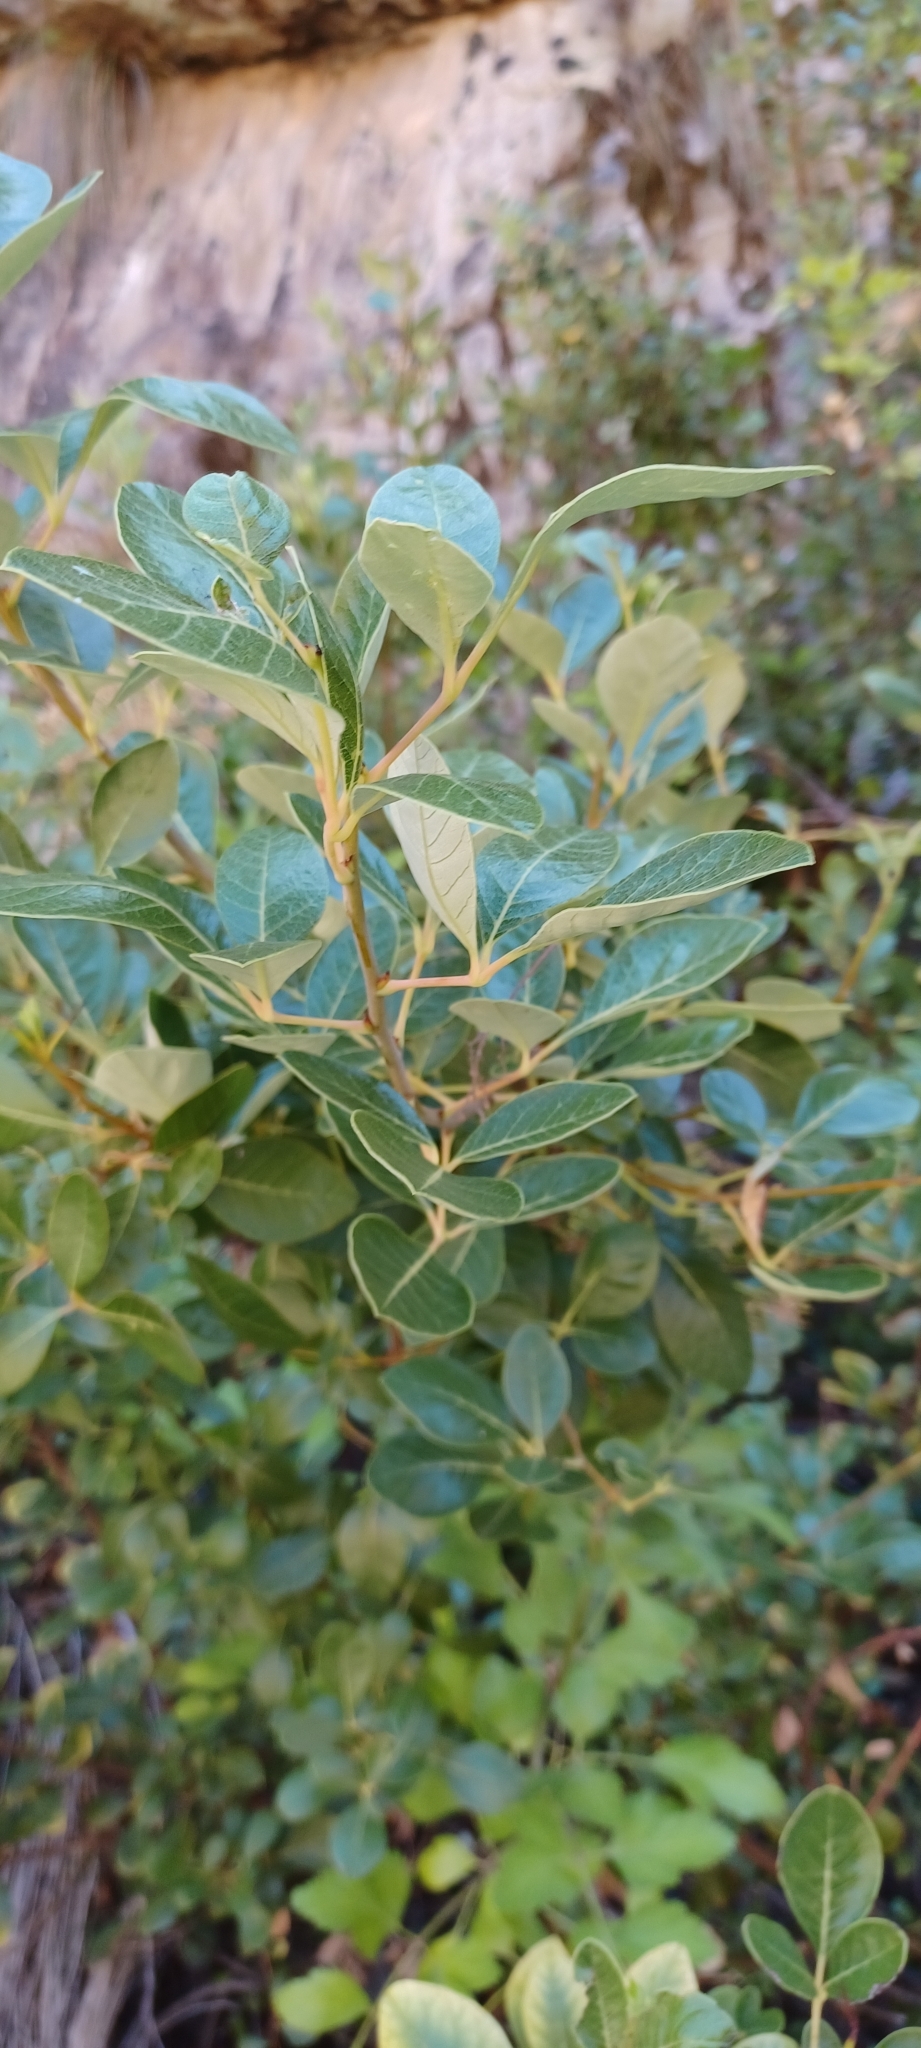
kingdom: Plantae
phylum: Tracheophyta
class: Magnoliopsida
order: Sapindales
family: Anacardiaceae
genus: Searsia
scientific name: Searsia tomentosa
